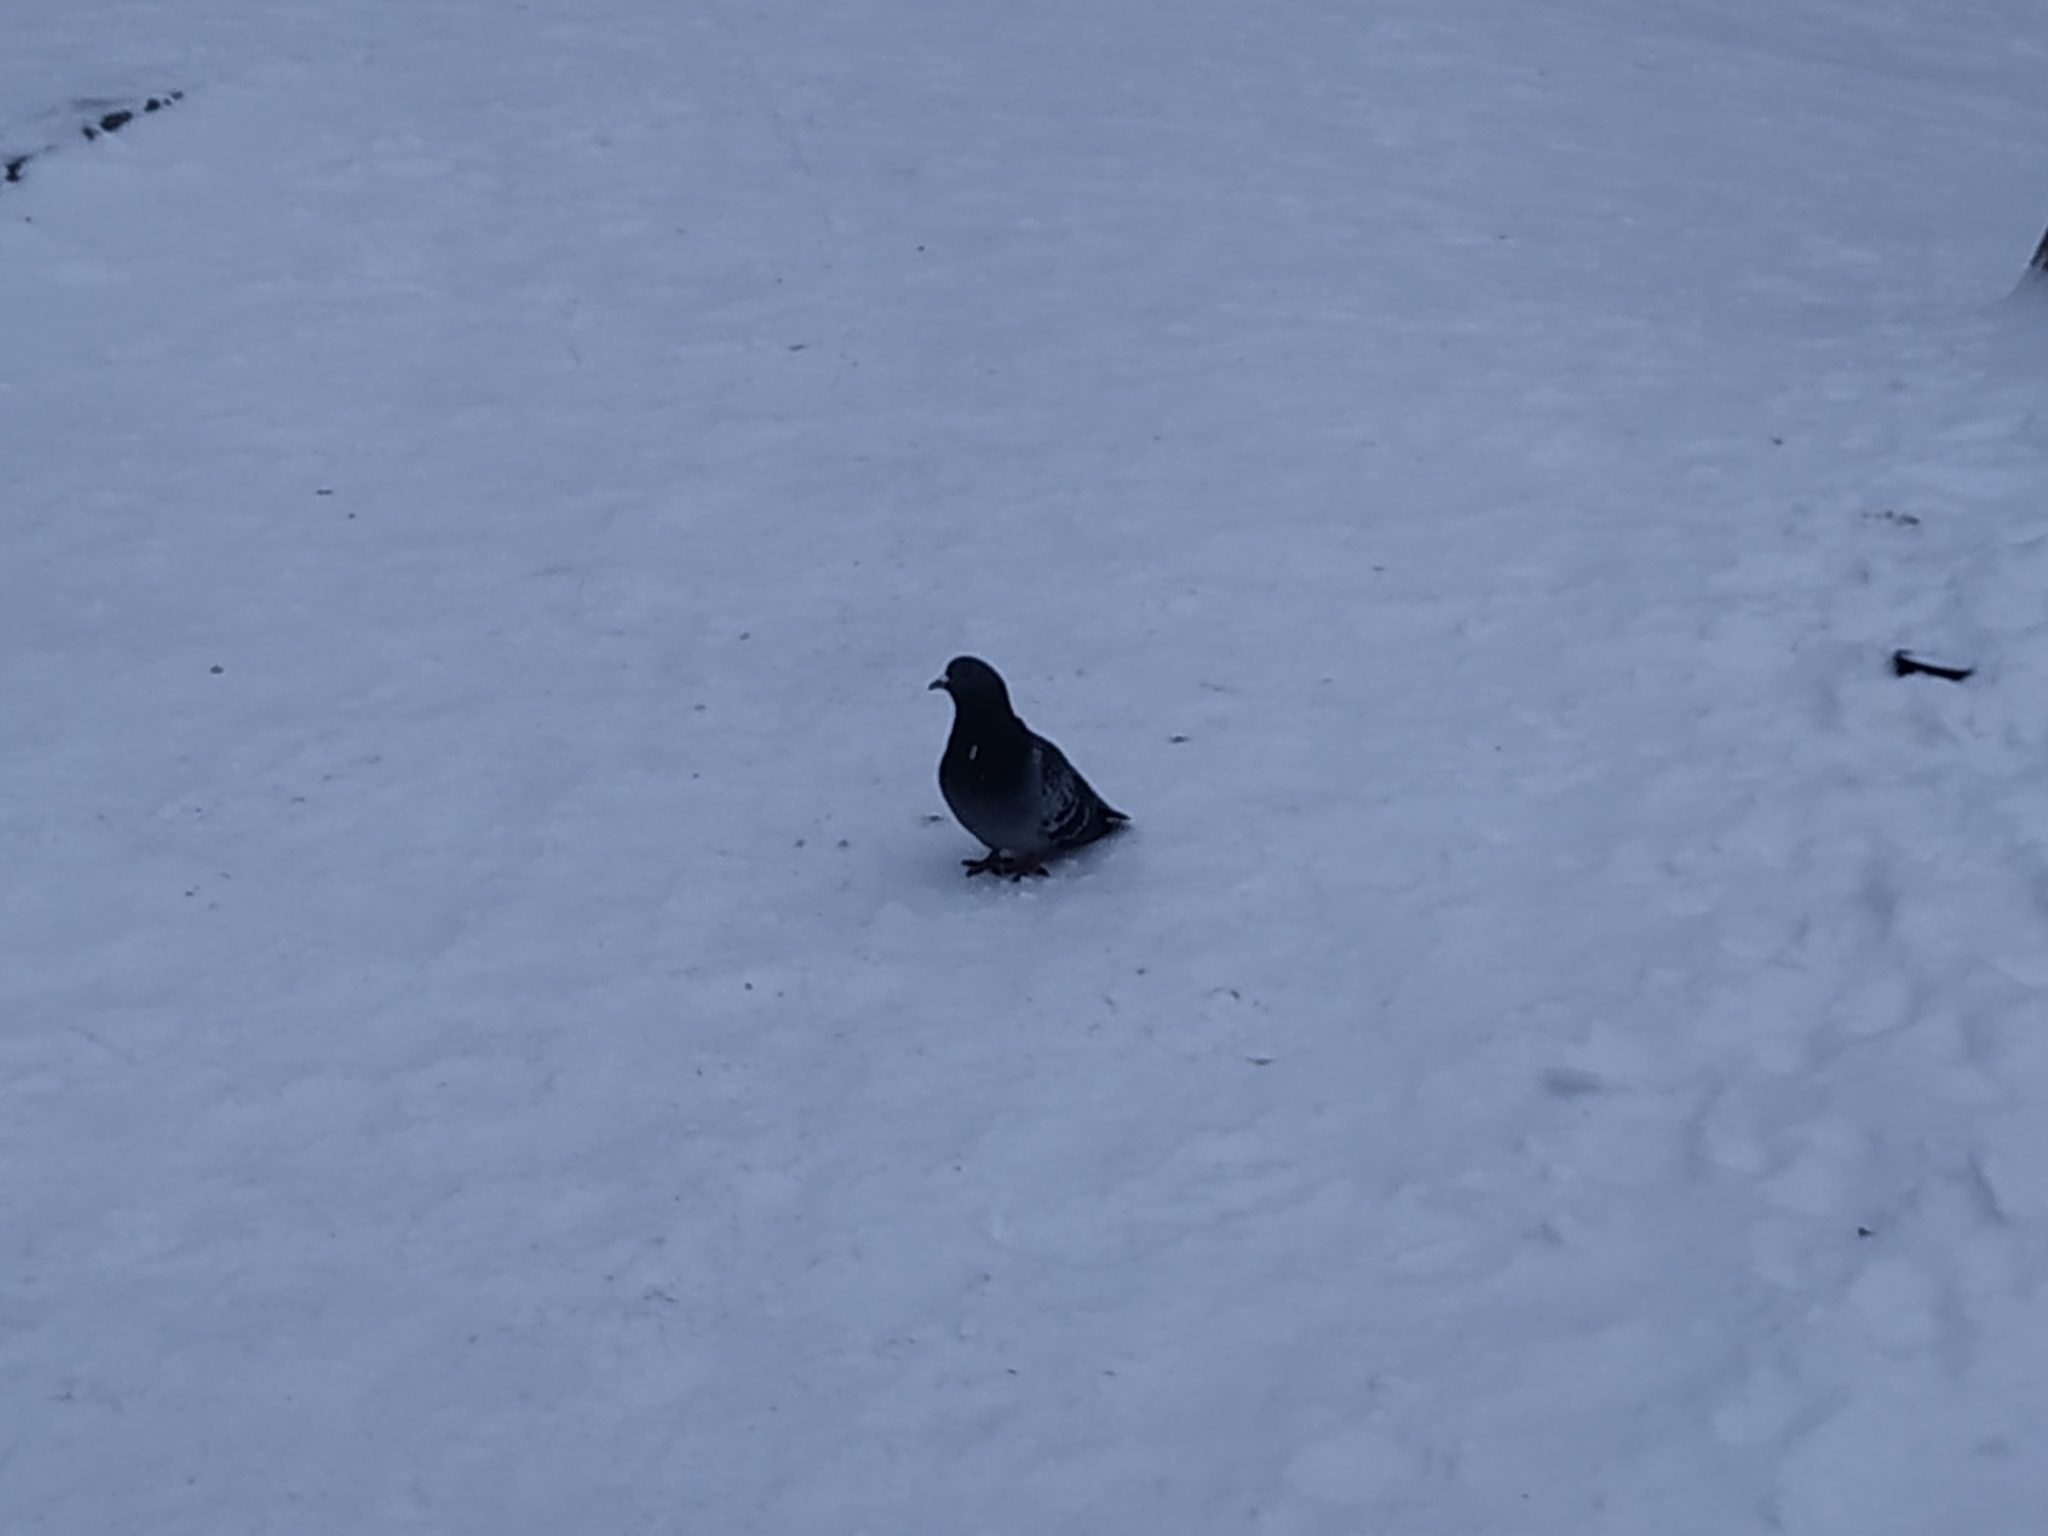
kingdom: Animalia
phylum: Chordata
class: Aves
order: Columbiformes
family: Columbidae
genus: Columba
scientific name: Columba livia
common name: Rock pigeon
